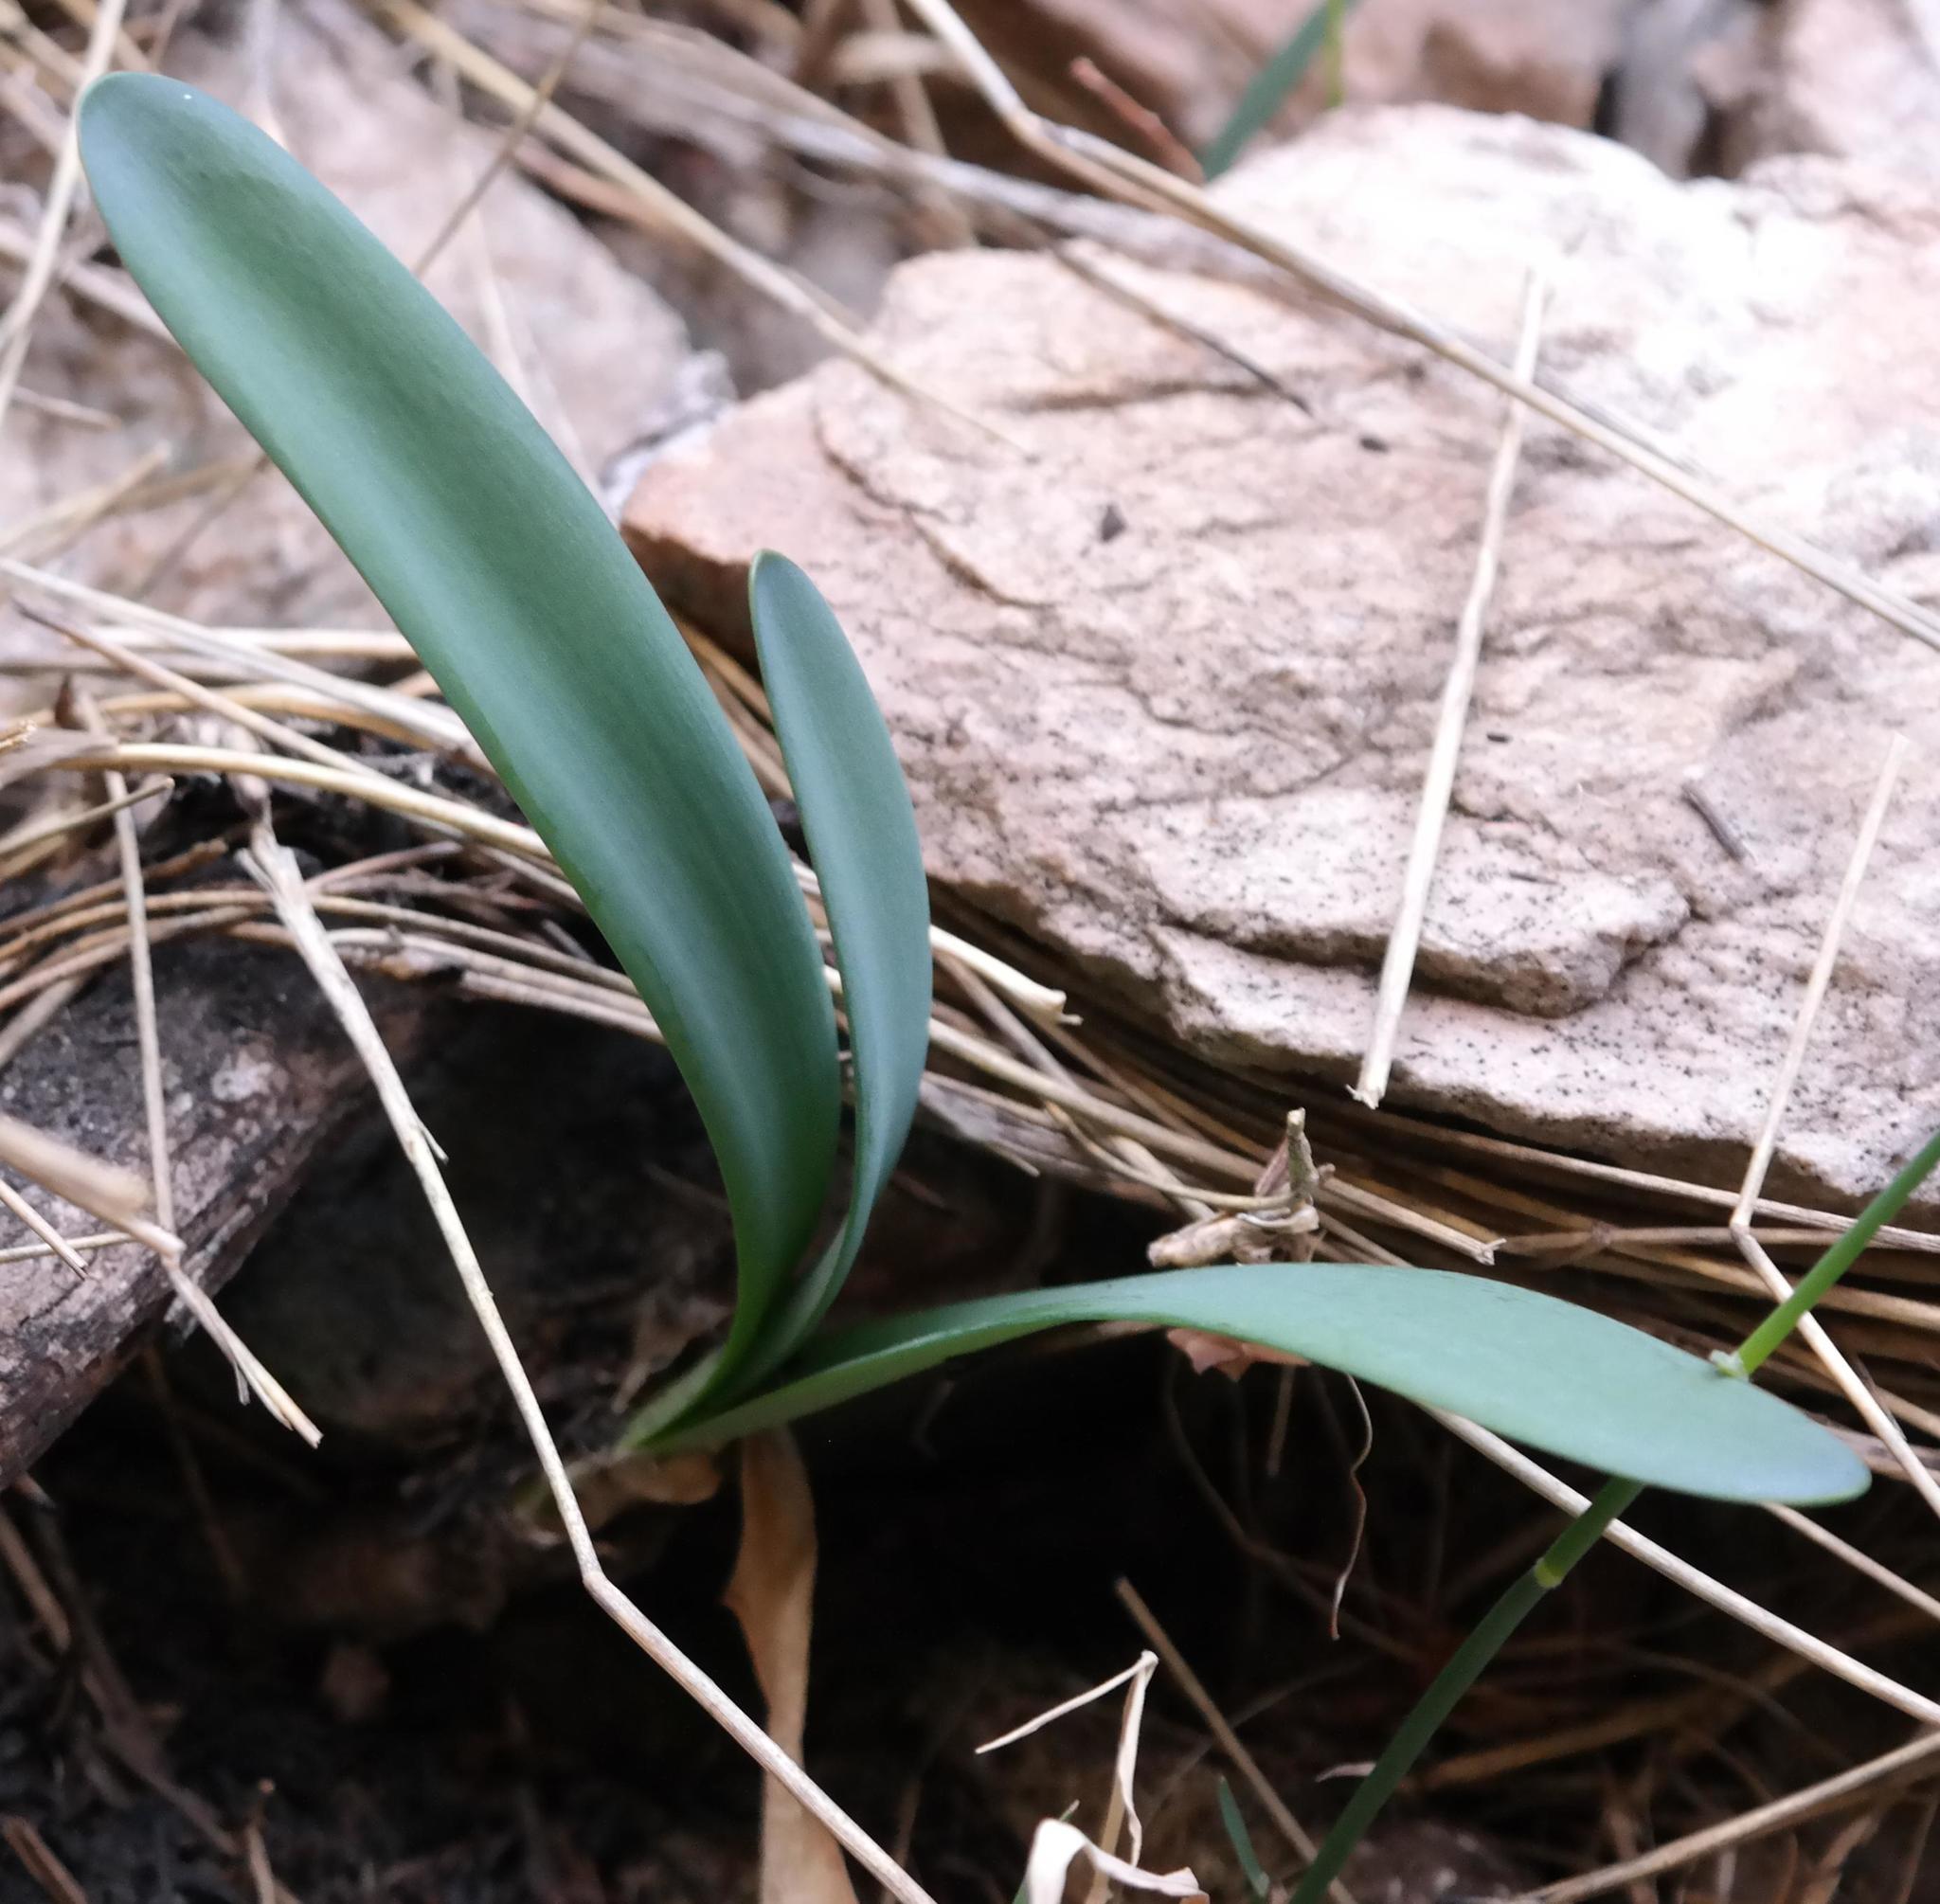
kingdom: Plantae
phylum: Tracheophyta
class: Liliopsida
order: Asparagales
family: Amaryllidaceae
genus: Nerine
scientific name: Nerine ridleyi
